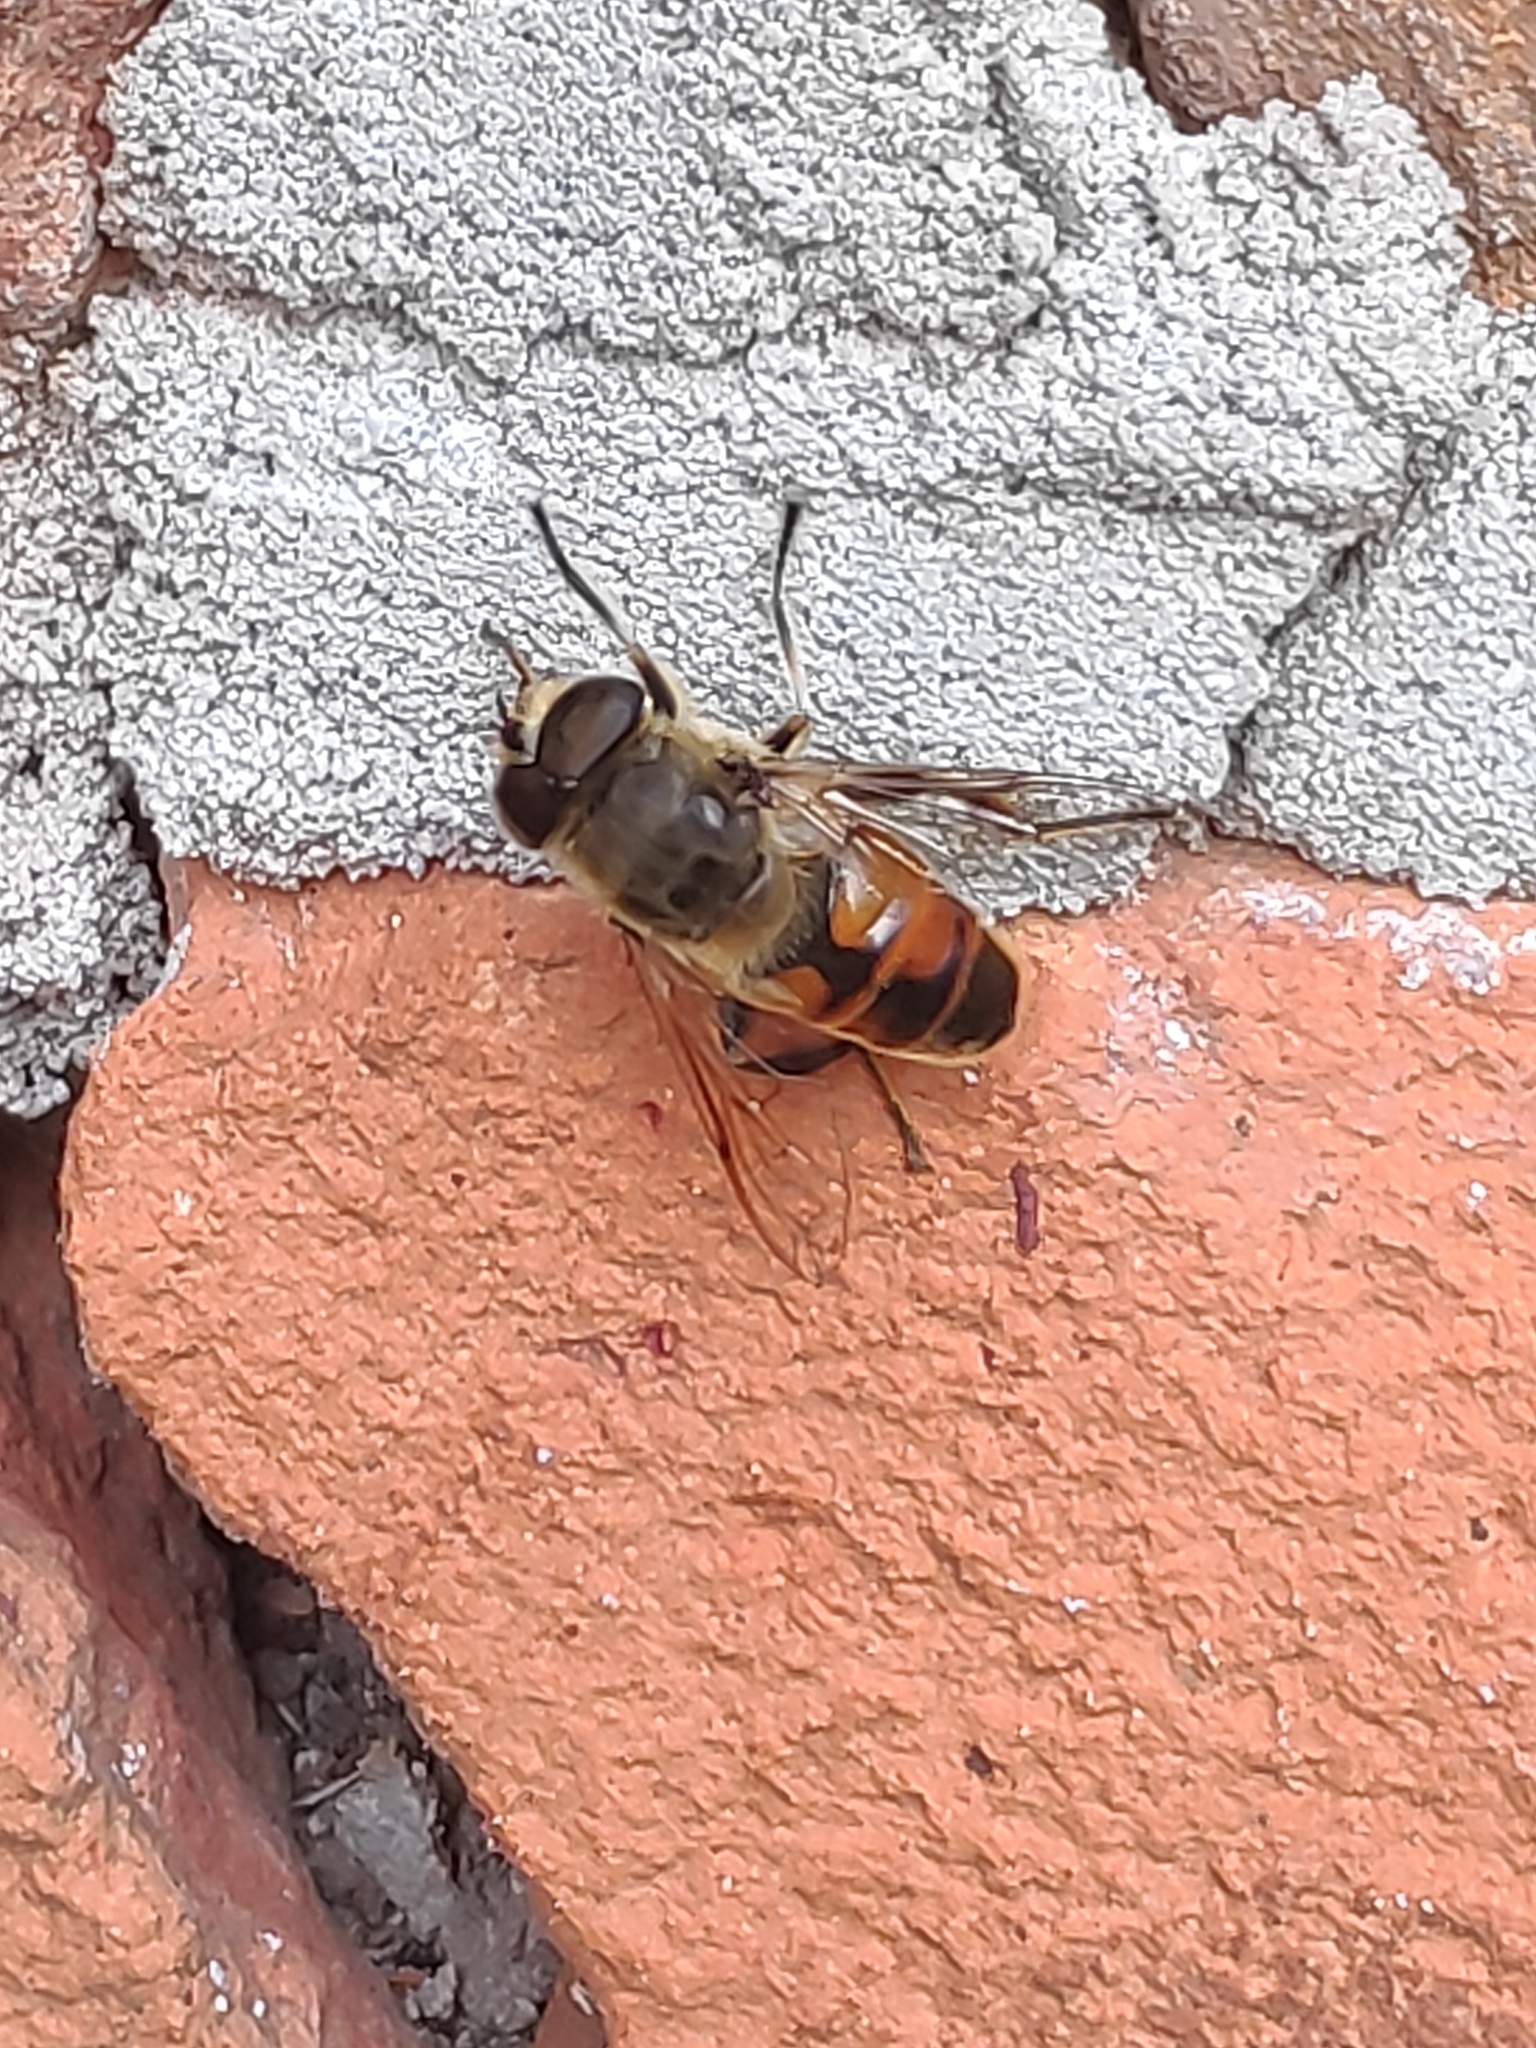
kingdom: Animalia
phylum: Arthropoda
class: Insecta
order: Diptera
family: Syrphidae
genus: Eristalis
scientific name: Eristalis tenax
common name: Drone fly
